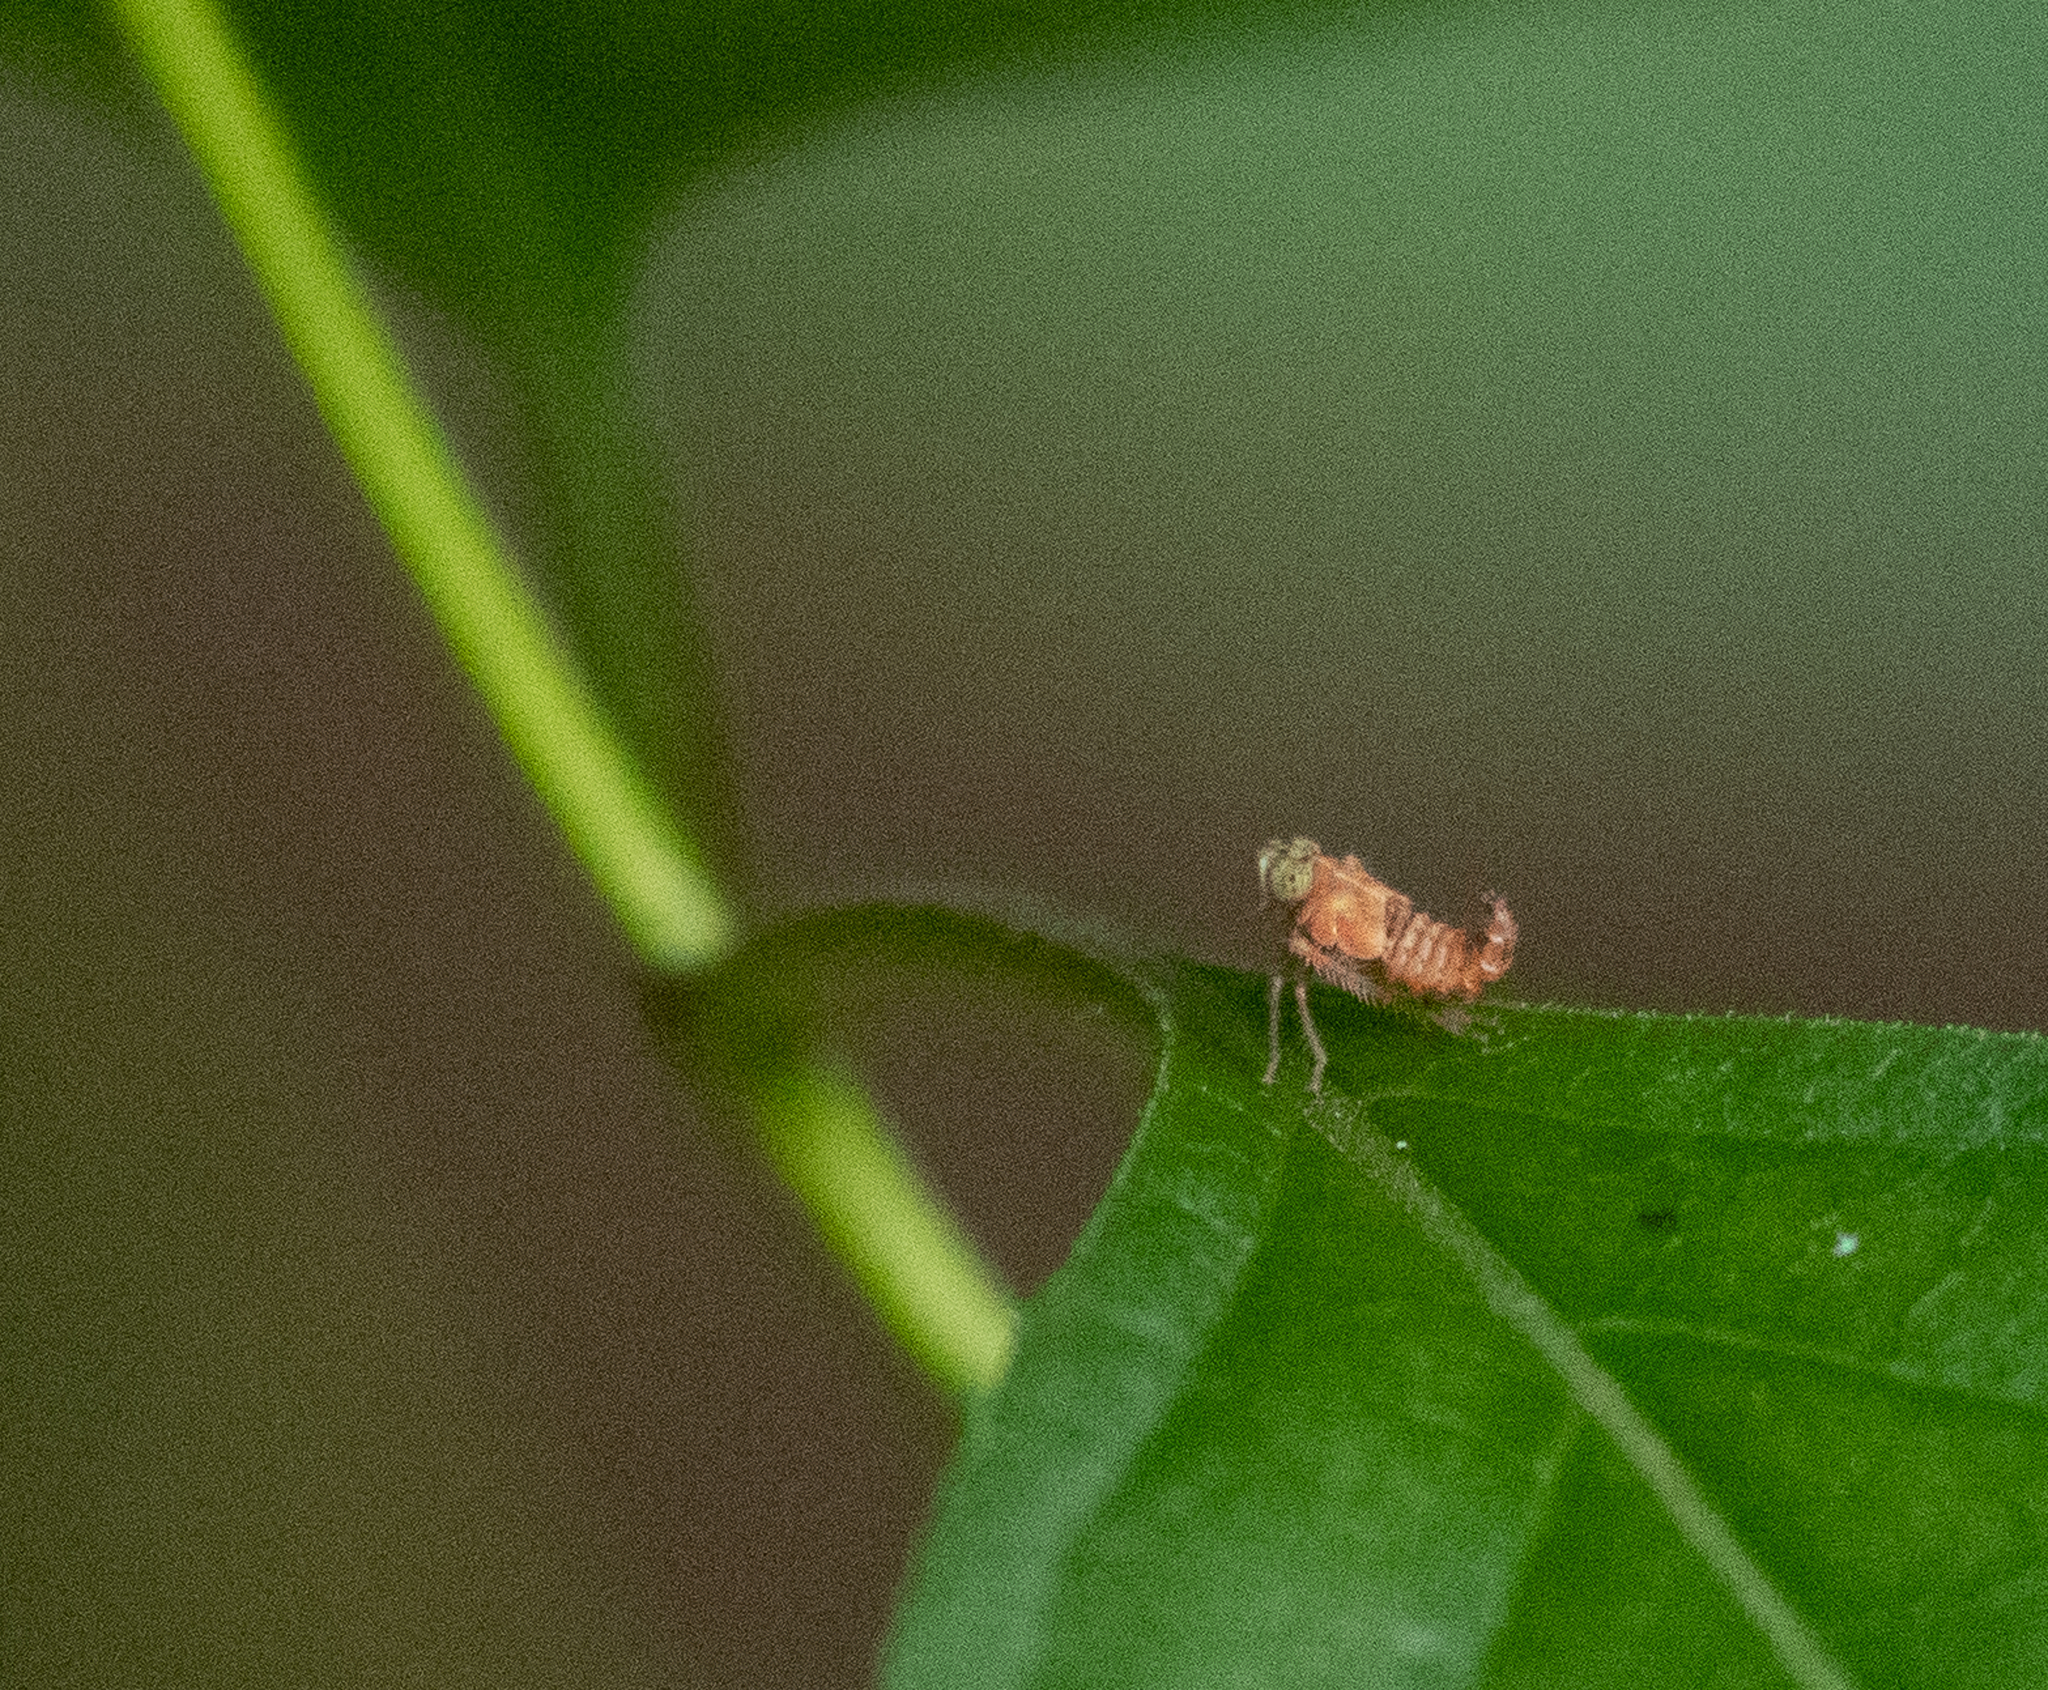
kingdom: Animalia
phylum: Arthropoda
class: Insecta
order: Hemiptera
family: Cicadellidae
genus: Jikradia
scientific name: Jikradia olitoria
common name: Coppery leafhopper
